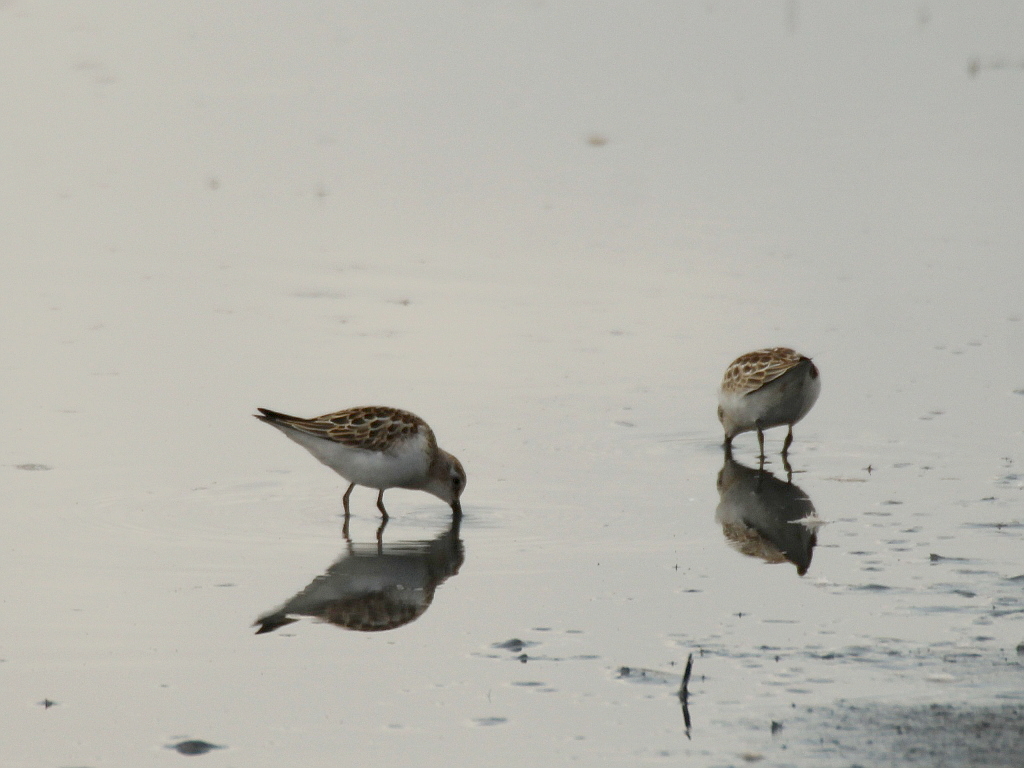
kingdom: Animalia
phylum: Chordata
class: Aves
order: Charadriiformes
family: Scolopacidae
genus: Calidris
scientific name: Calidris minuta
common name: Little stint
